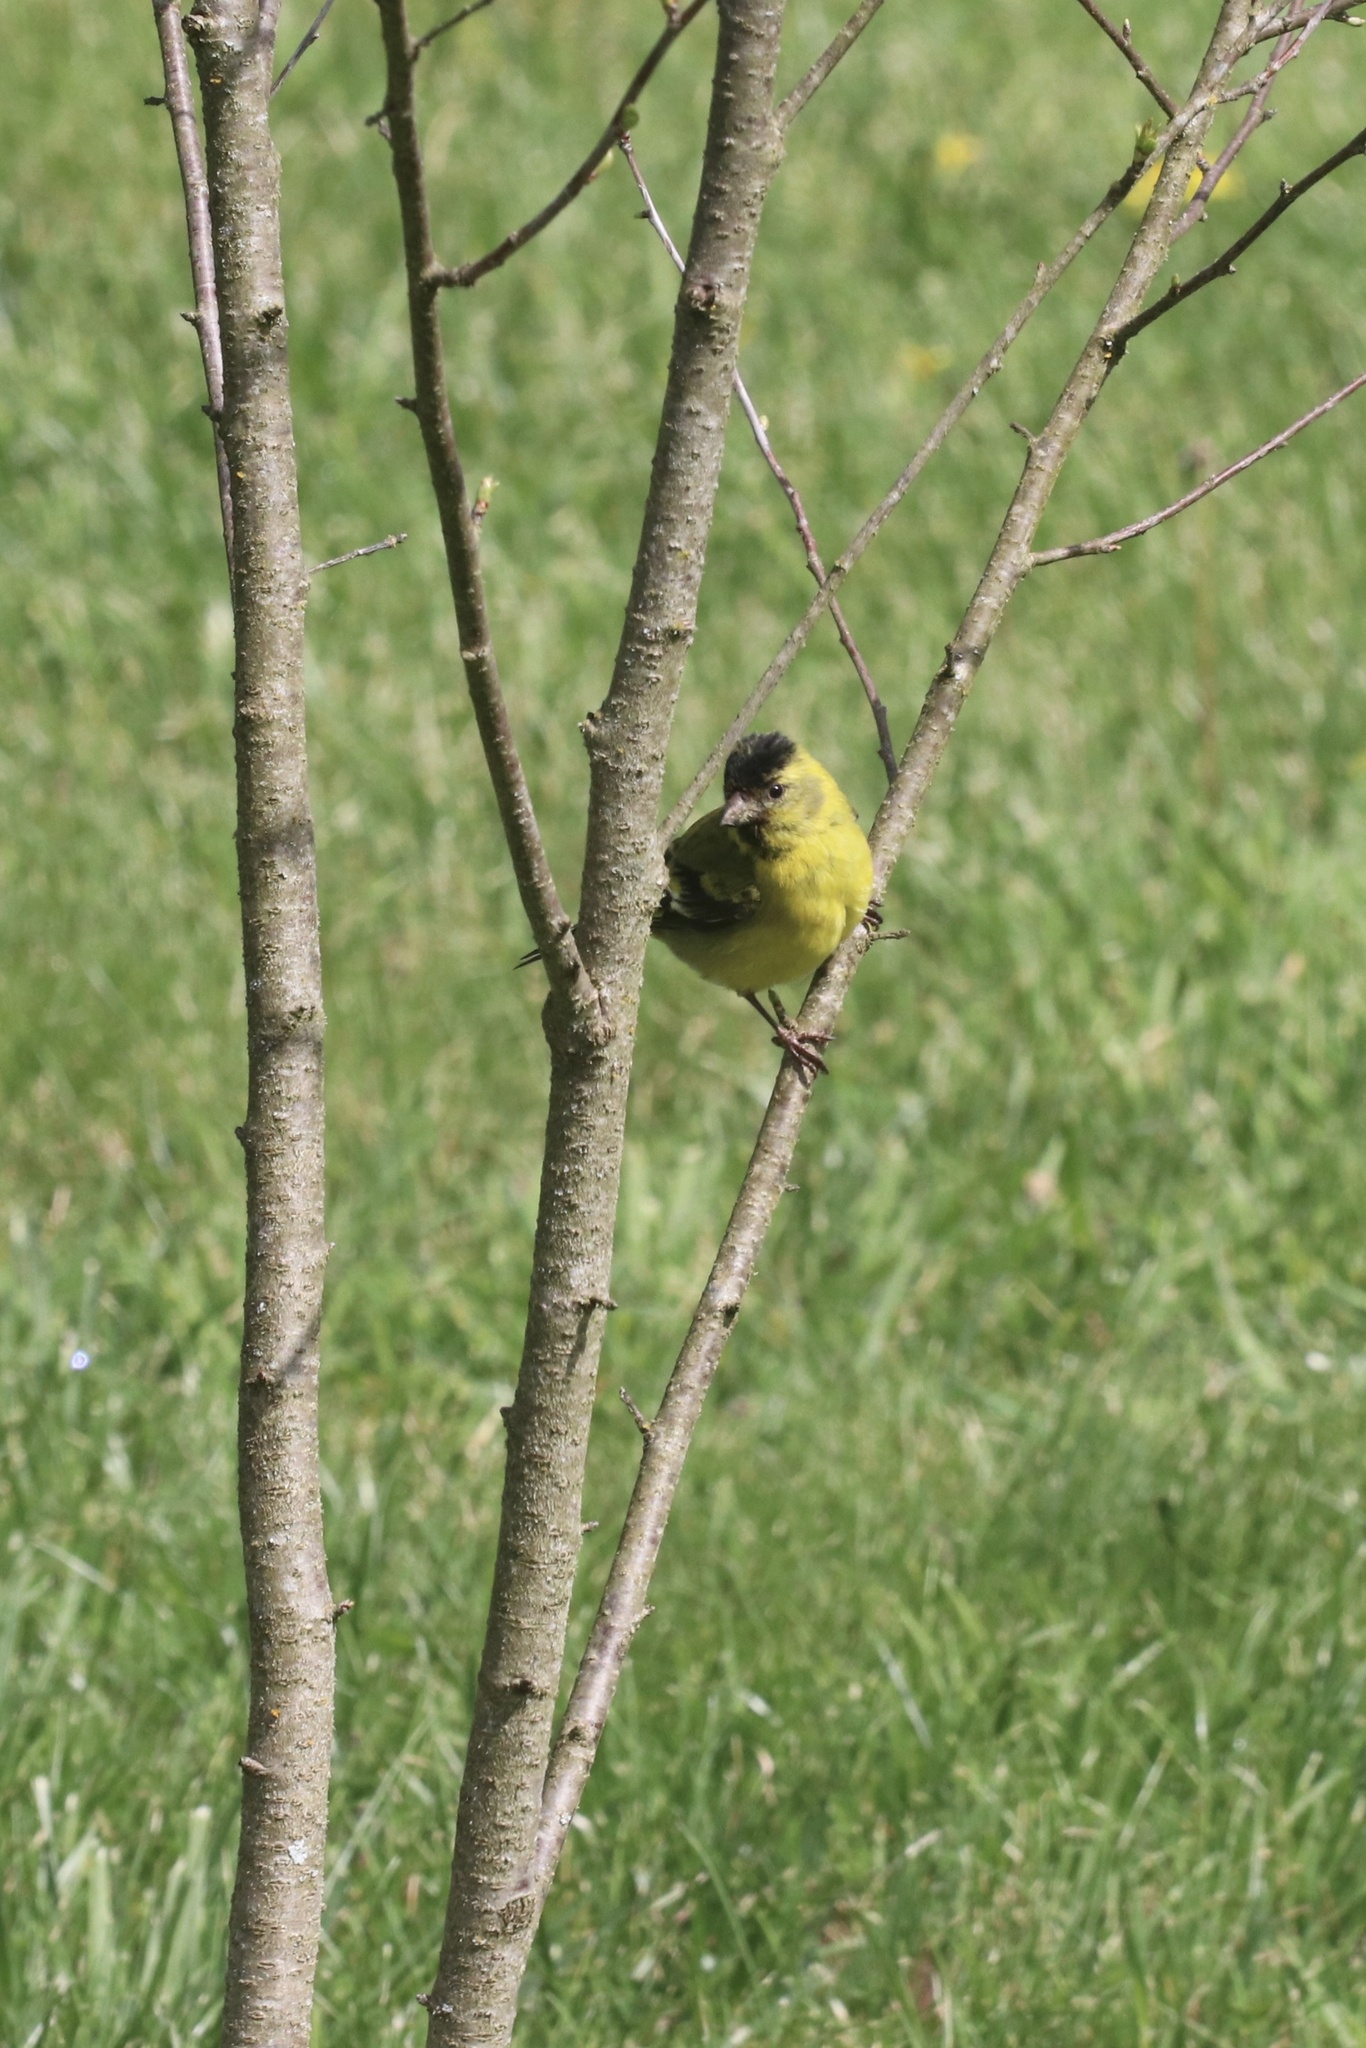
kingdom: Animalia
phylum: Chordata
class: Aves
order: Passeriformes
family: Fringillidae
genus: Spinus
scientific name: Spinus barbatus
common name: Black-chinned siskin
